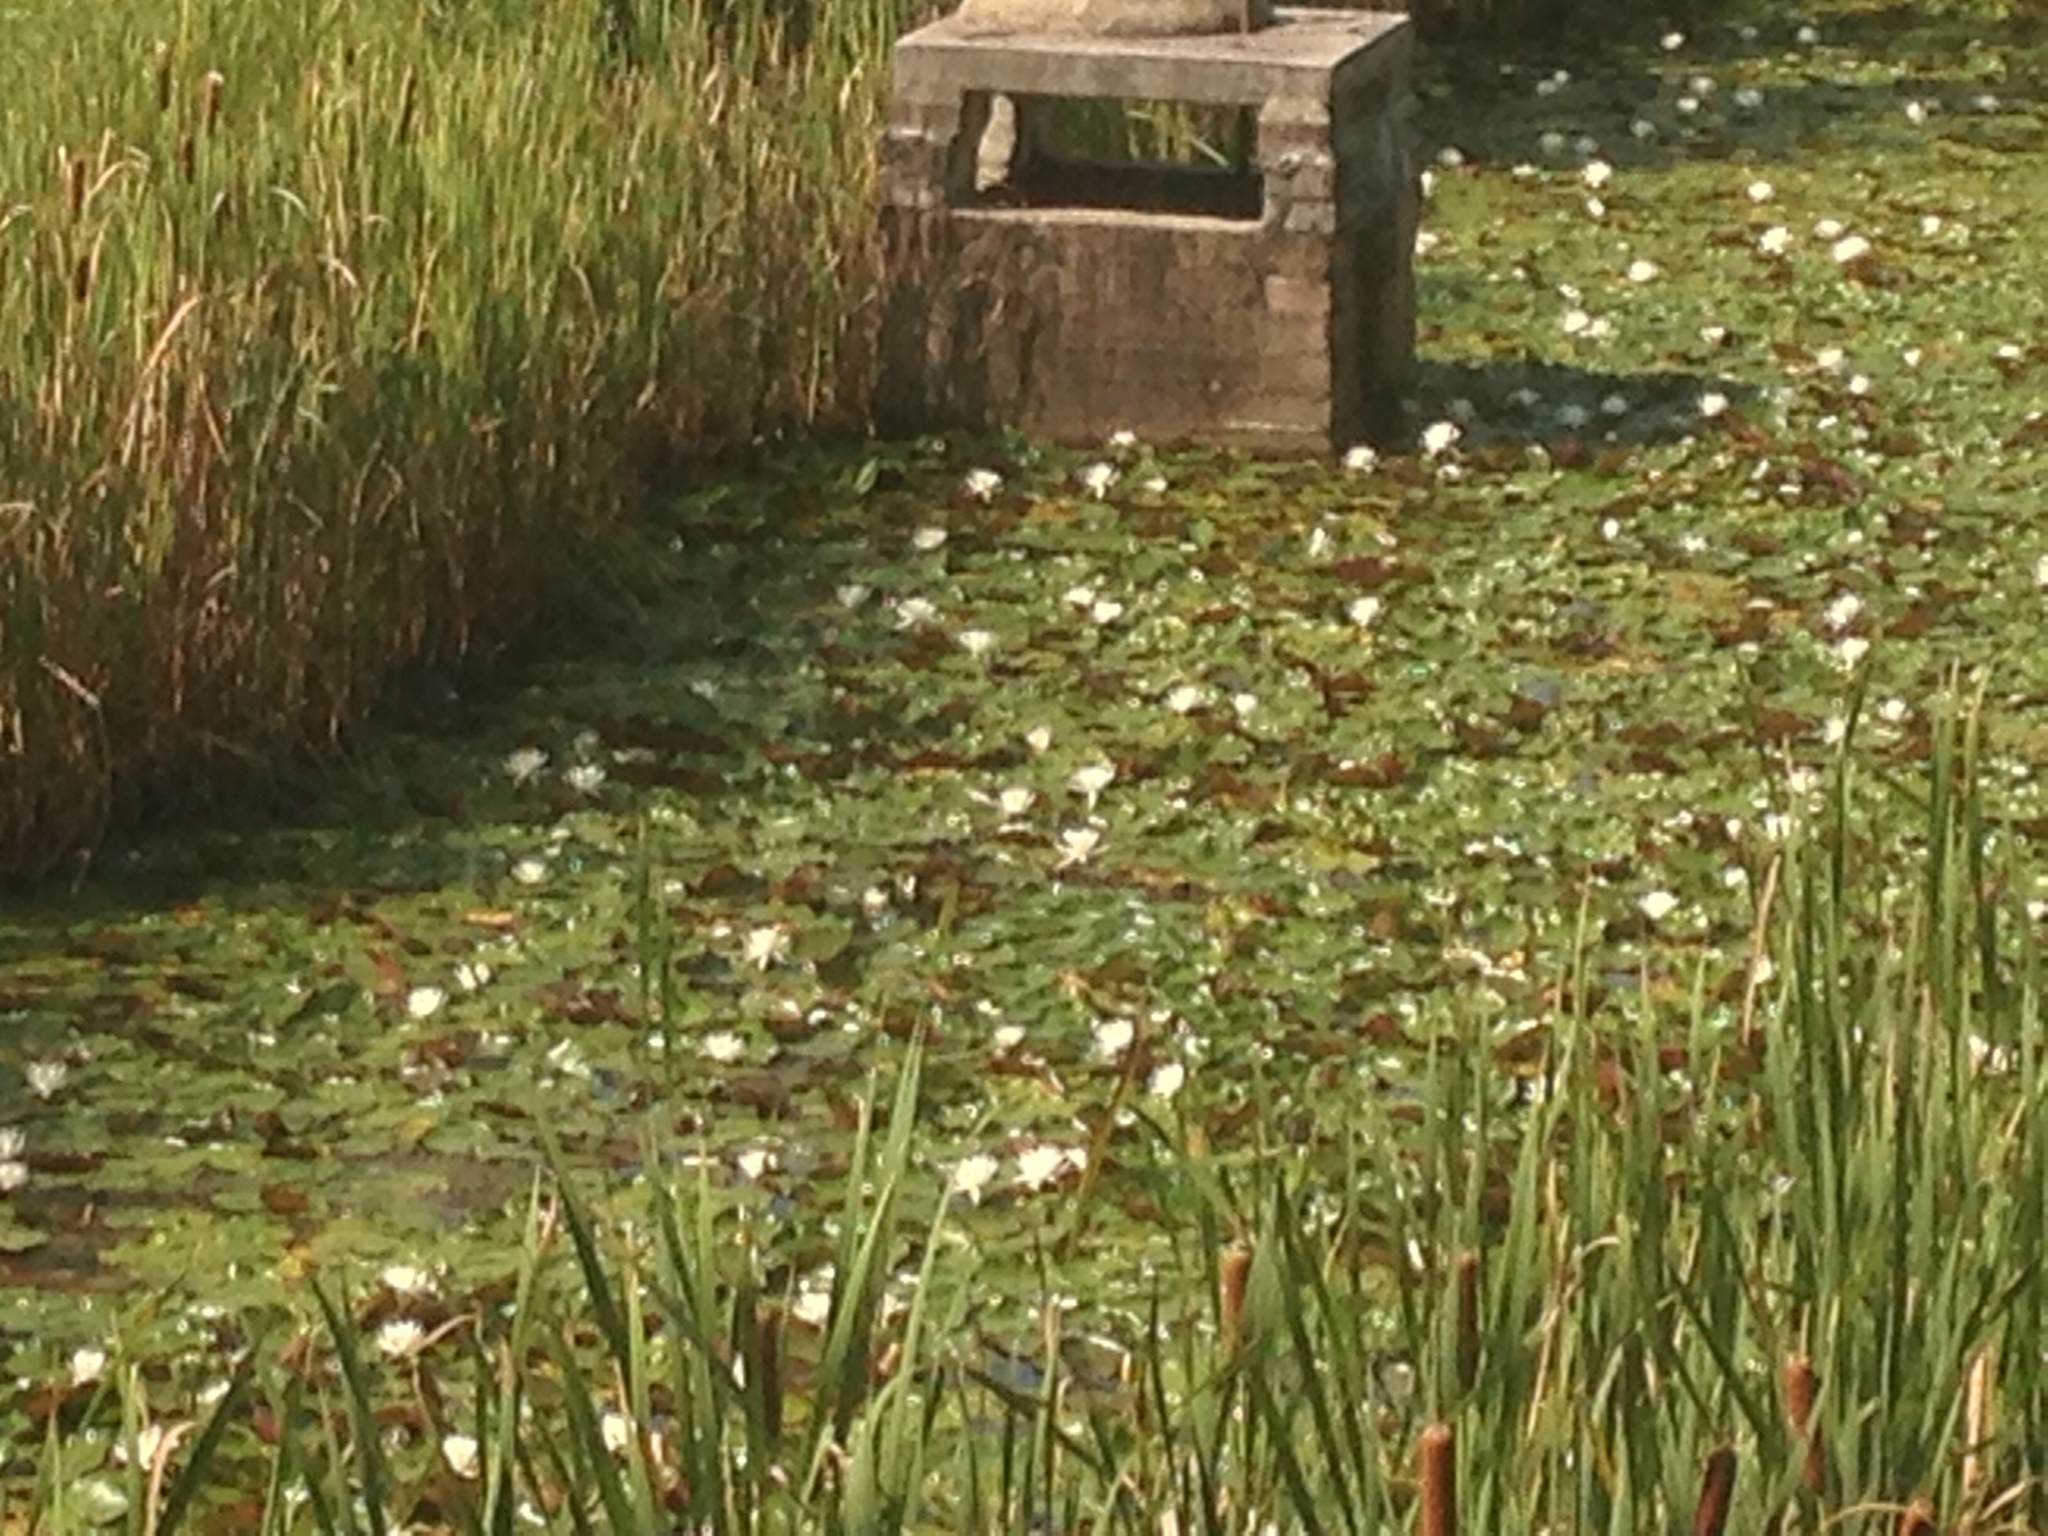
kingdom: Plantae
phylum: Tracheophyta
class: Magnoliopsida
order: Nymphaeales
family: Nymphaeaceae
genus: Nymphaea
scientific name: Nymphaea odorata
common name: Fragrant water-lily
